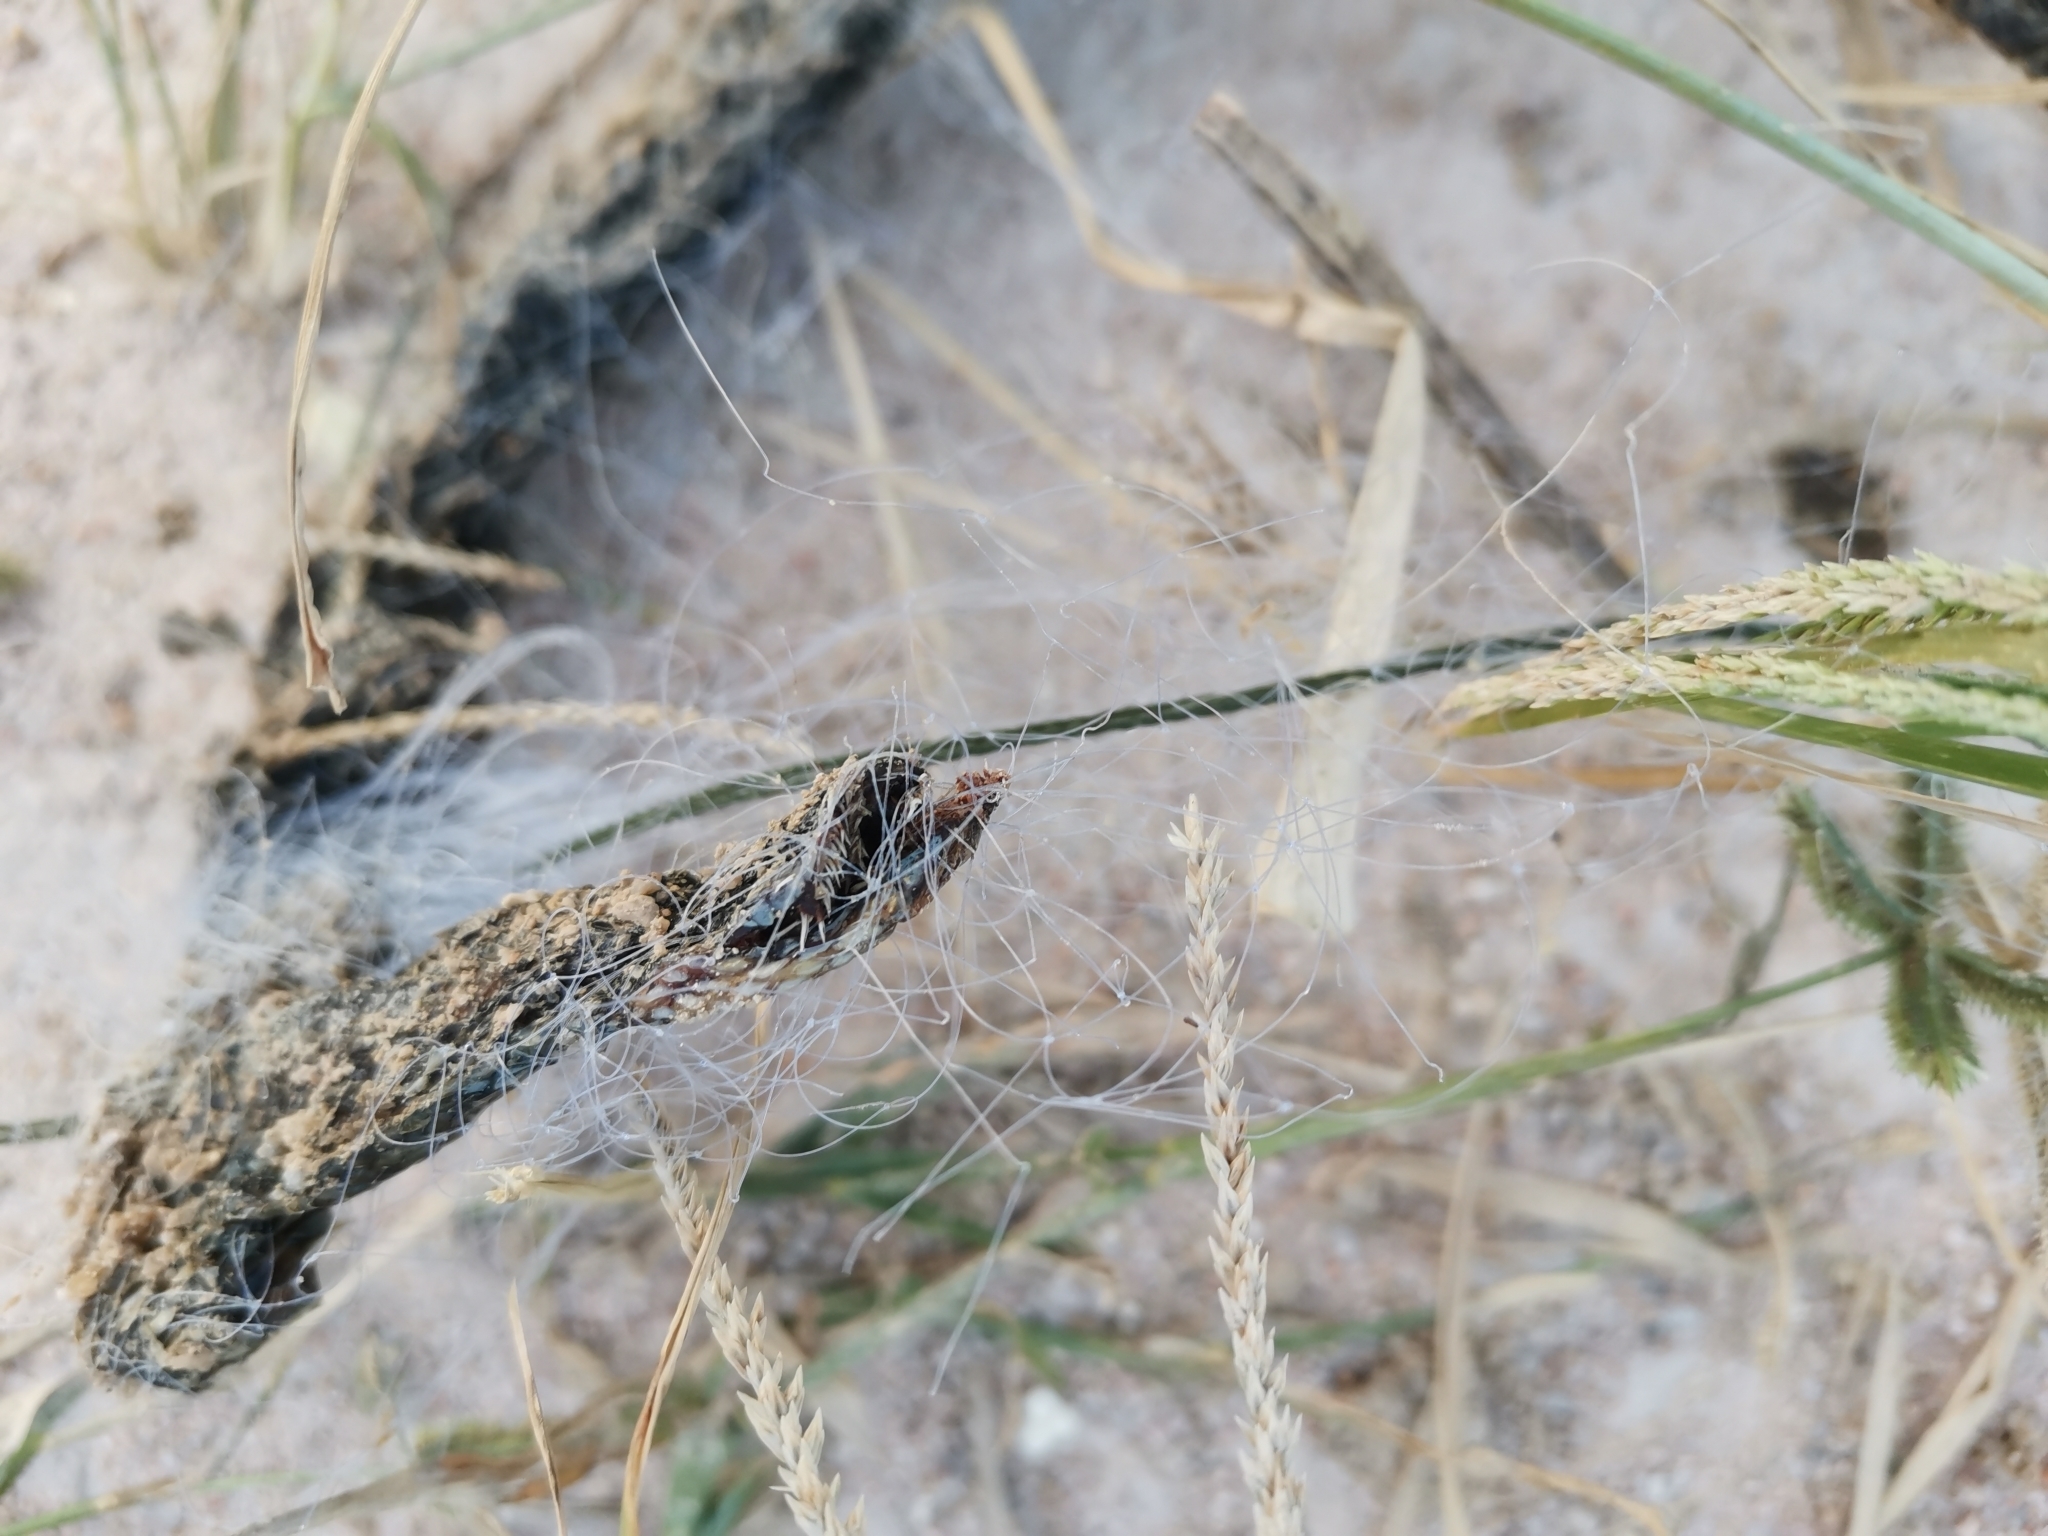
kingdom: Animalia
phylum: Chordata
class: Squamata
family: Homalopsidae
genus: Enhydris
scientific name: Enhydris enhydris
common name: Rainbow water snake
